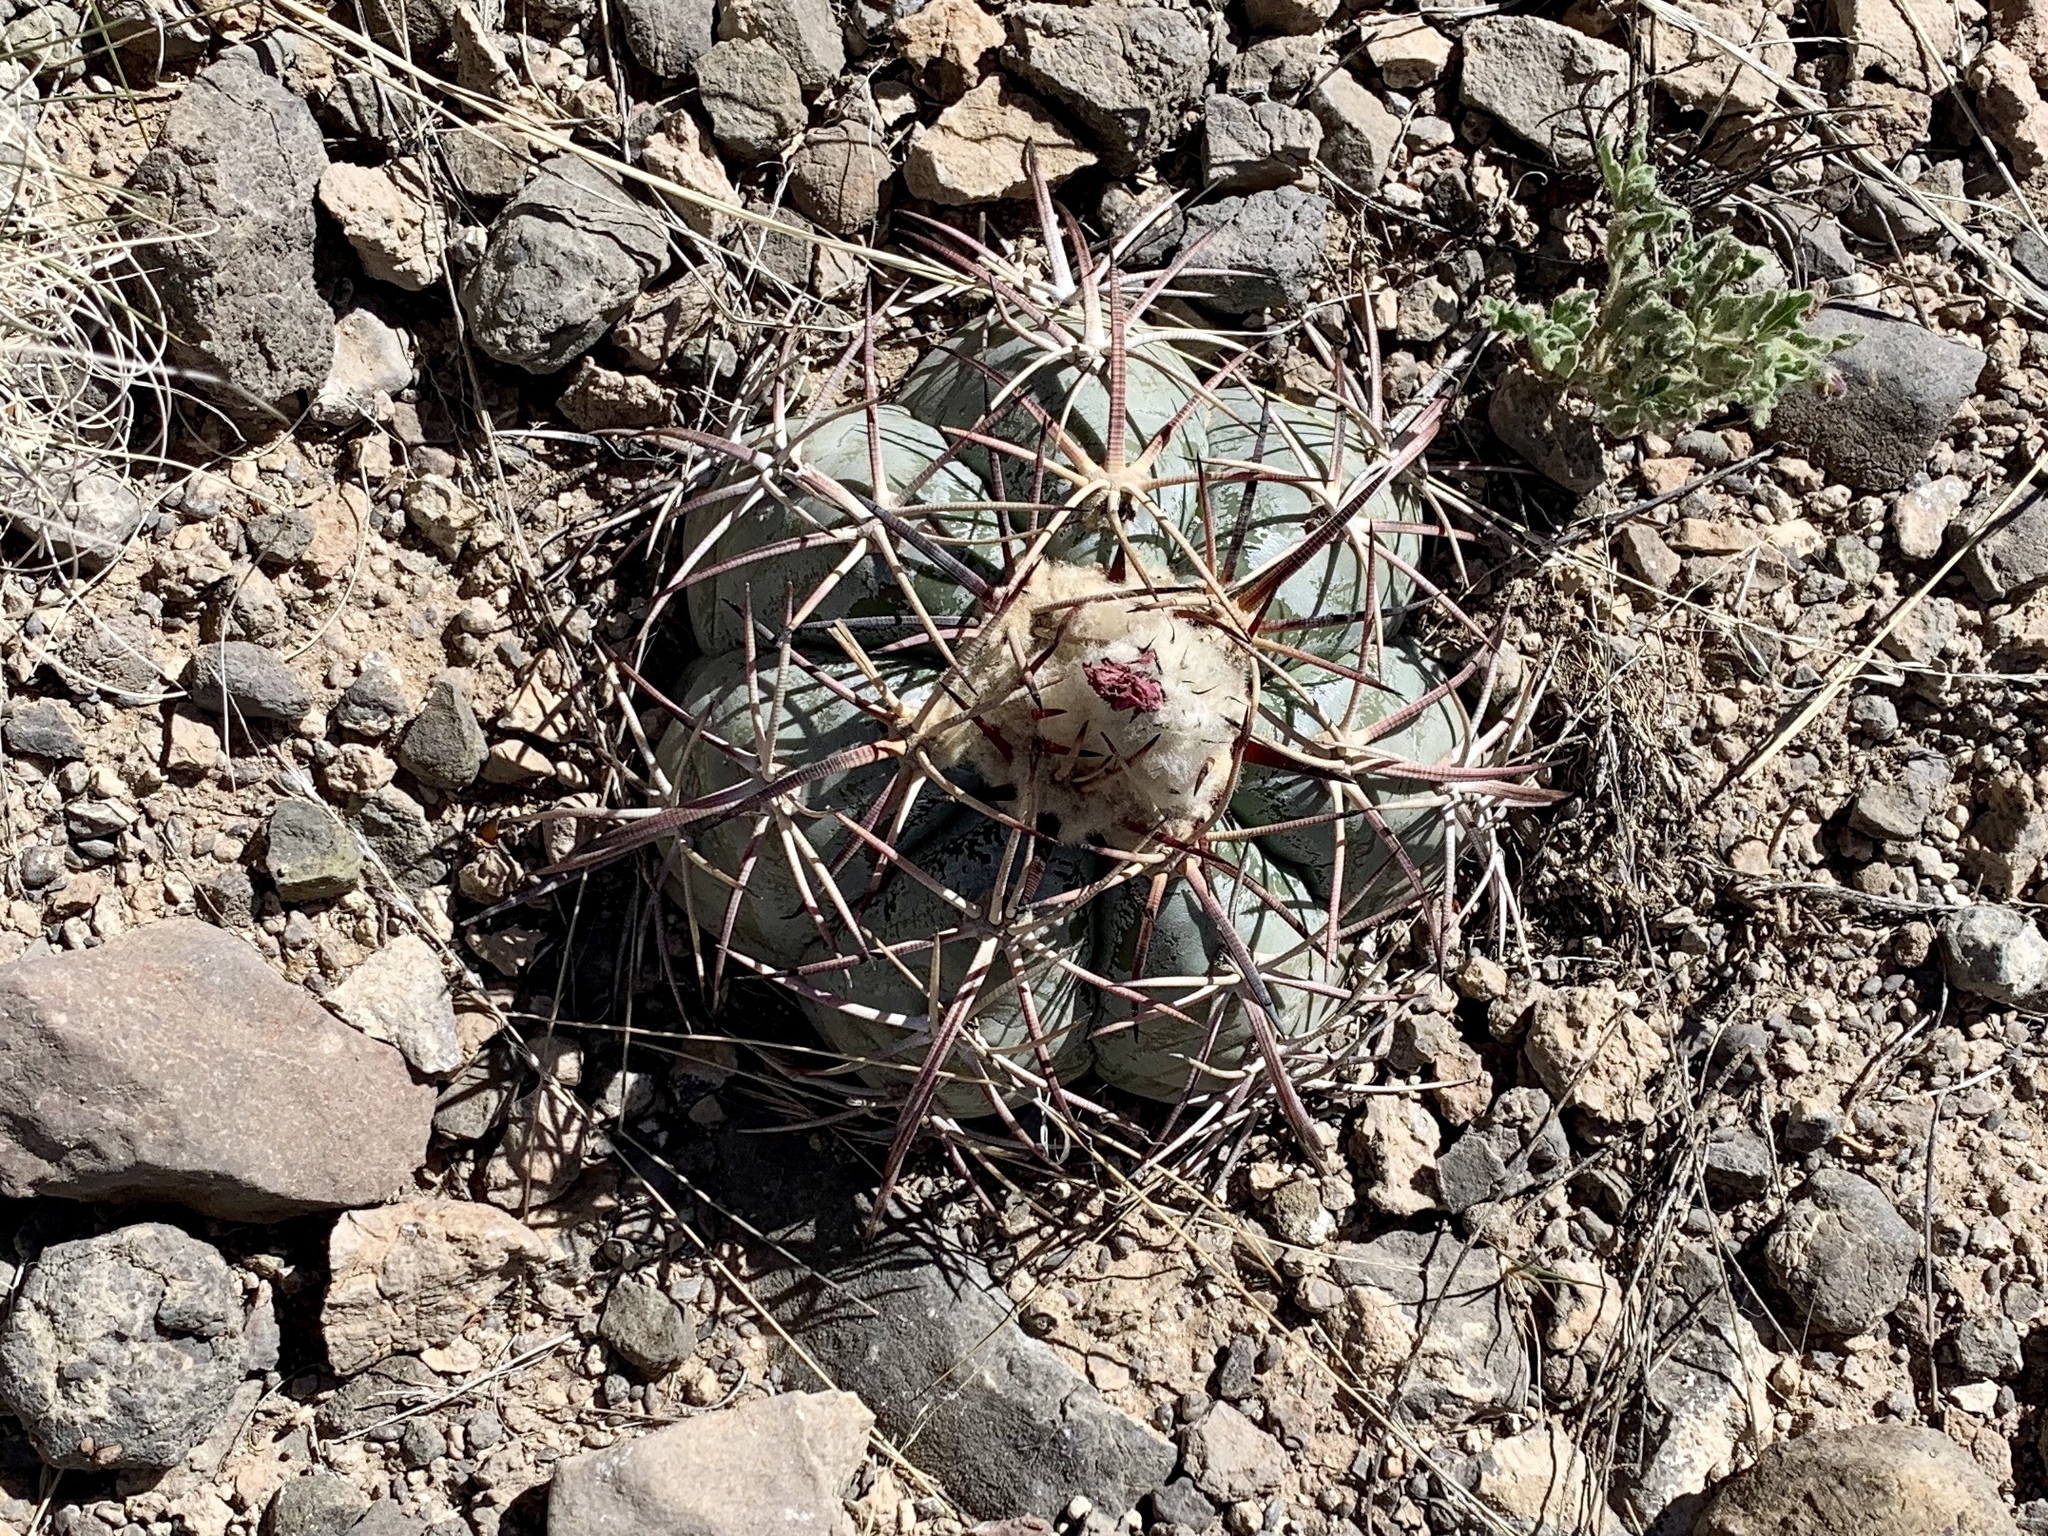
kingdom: Plantae
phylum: Tracheophyta
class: Magnoliopsida
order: Caryophyllales
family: Cactaceae
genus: Echinocactus
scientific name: Echinocactus horizonthalonius
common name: Devilshead
